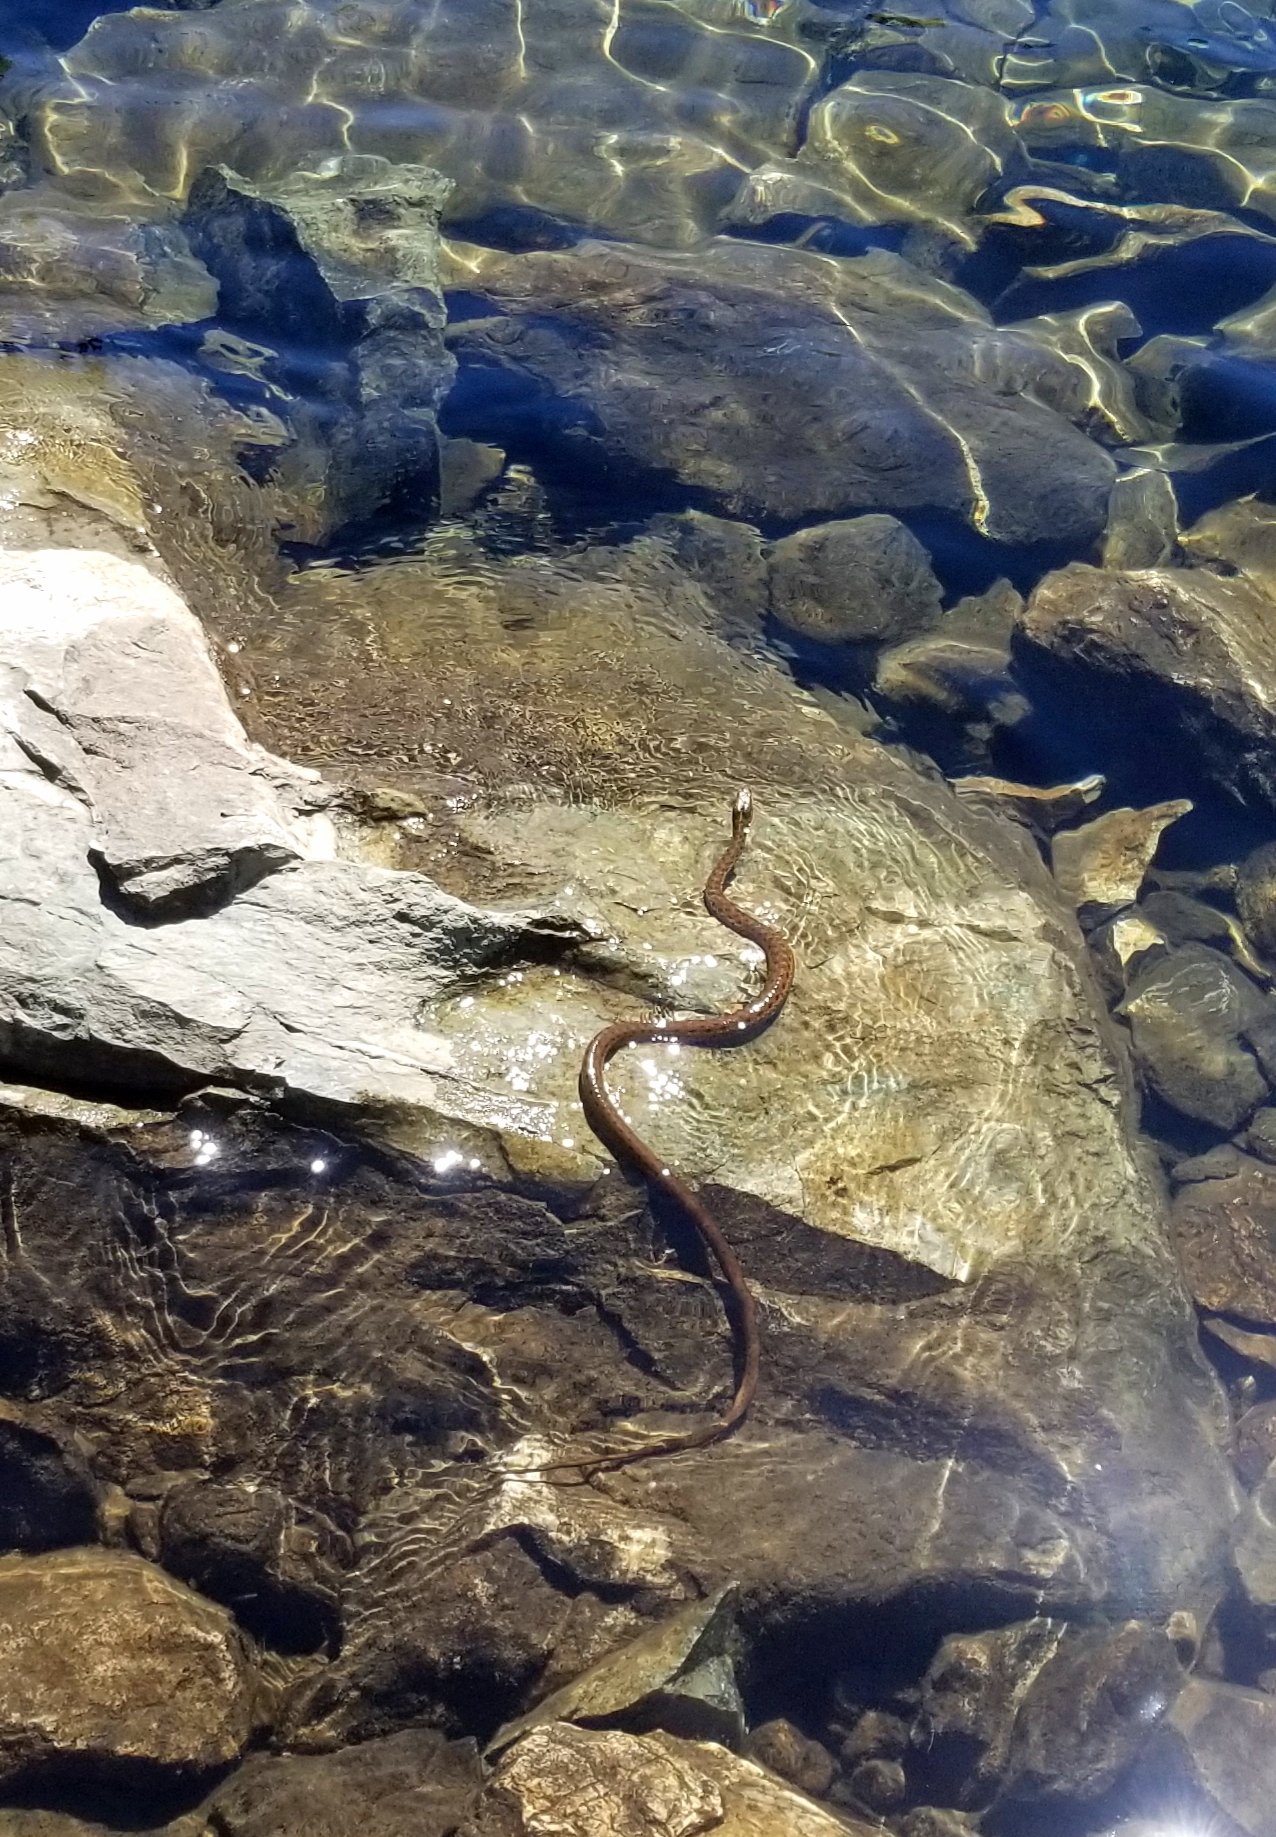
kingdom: Animalia
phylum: Chordata
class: Squamata
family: Colubridae
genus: Thamnophis
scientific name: Thamnophis couchii
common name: Western aquatic garter snake
